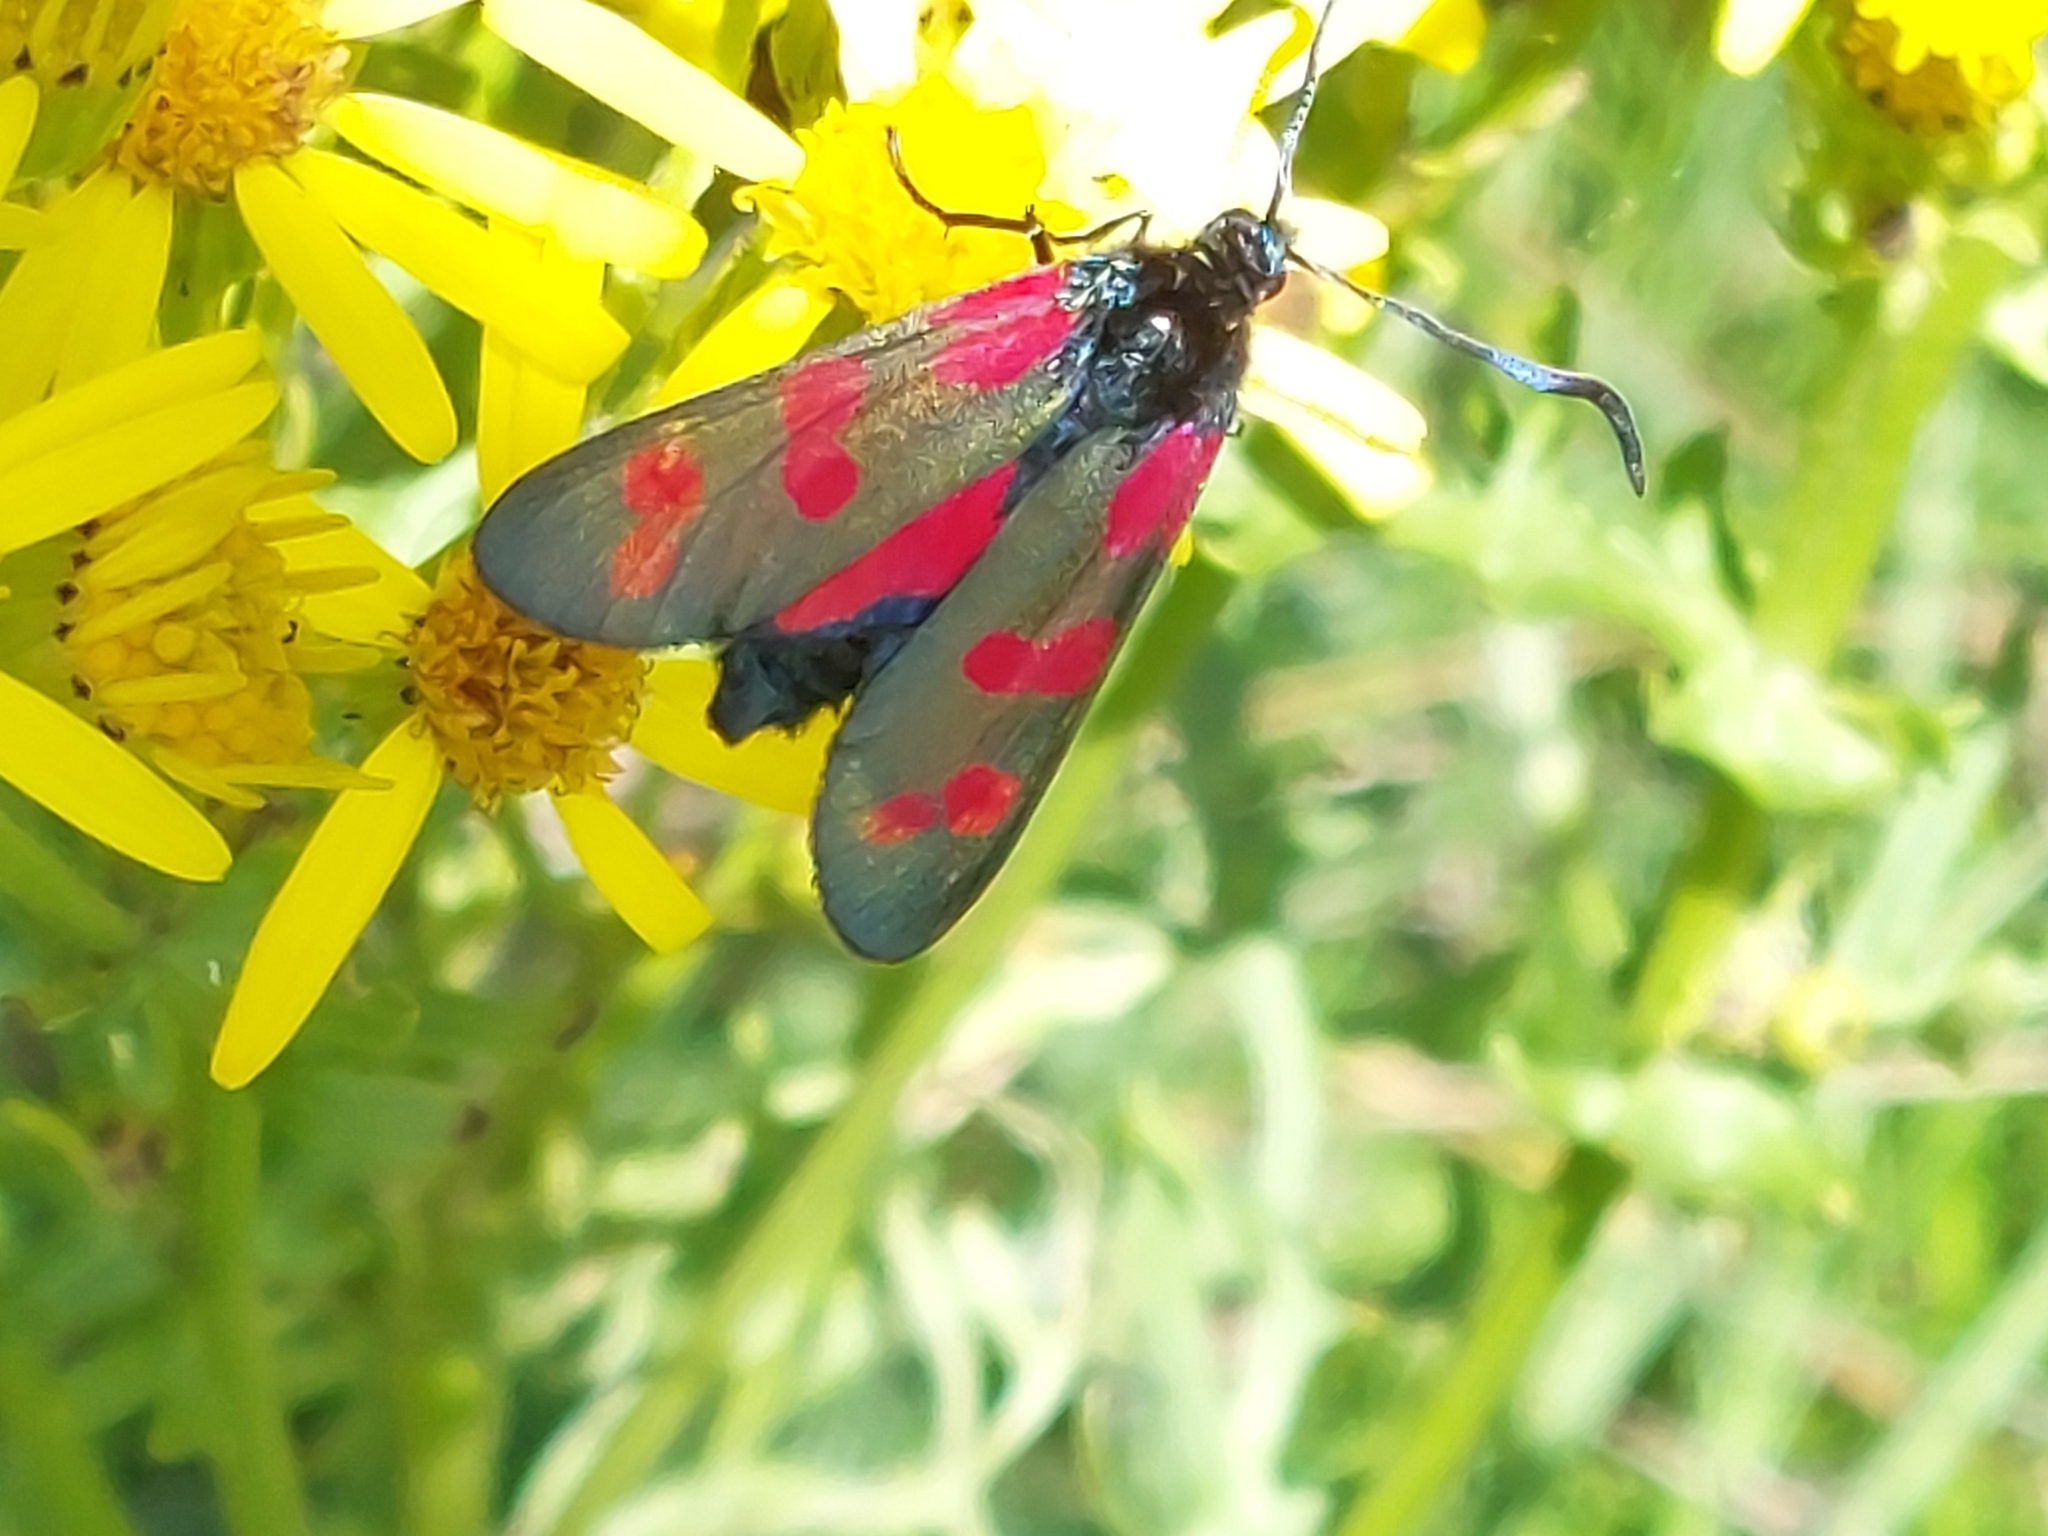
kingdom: Animalia
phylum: Arthropoda
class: Insecta
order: Lepidoptera
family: Zygaenidae
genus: Zygaena
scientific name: Zygaena filipendulae
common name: Six-spot burnet
